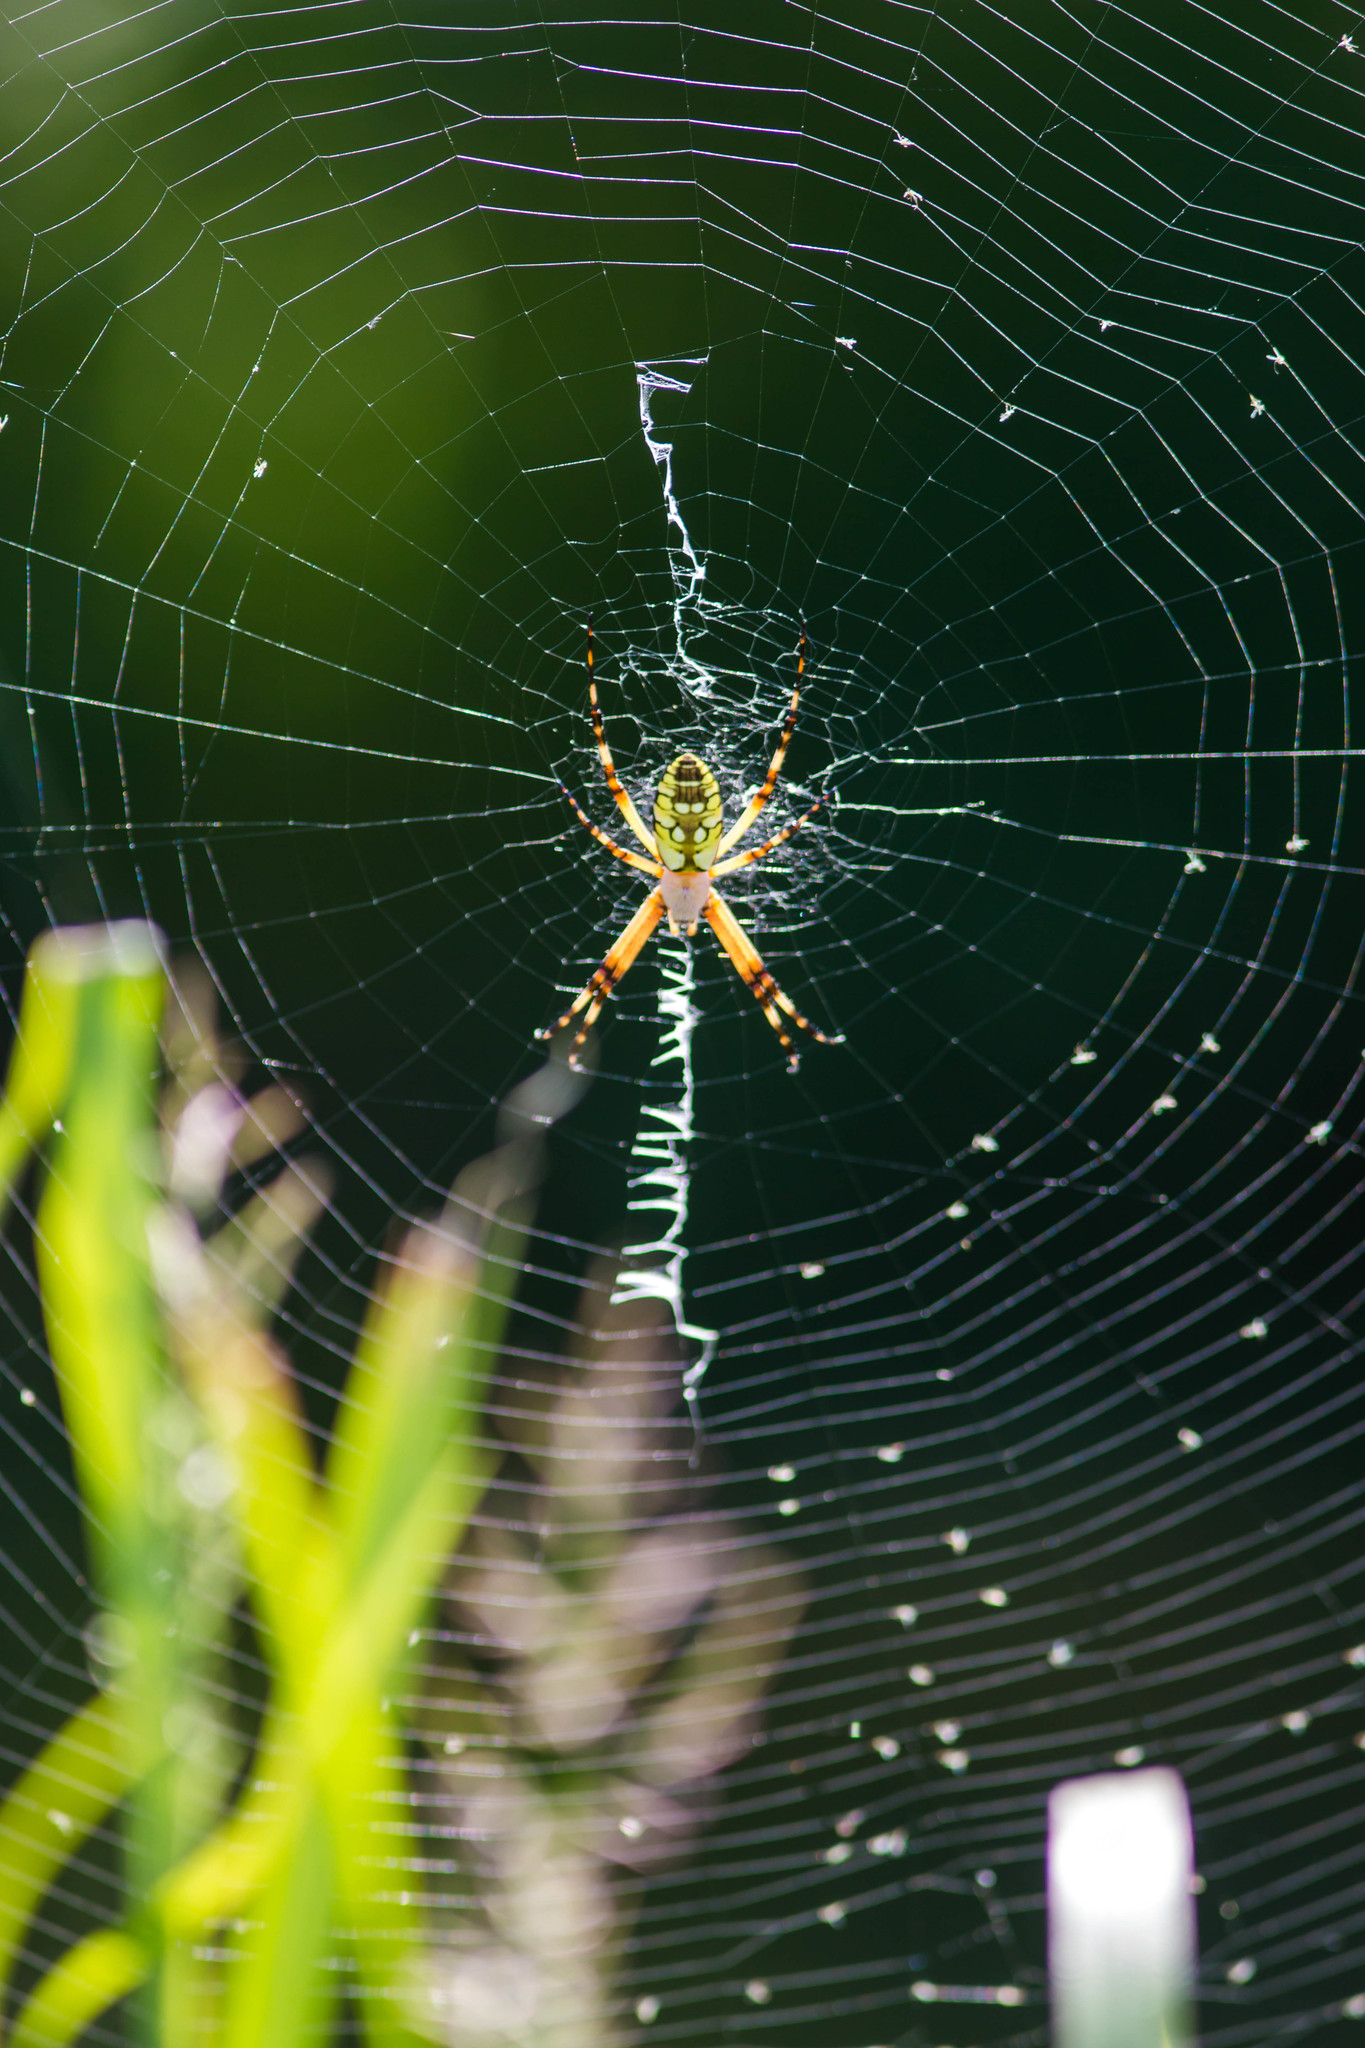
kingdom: Animalia
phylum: Arthropoda
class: Arachnida
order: Araneae
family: Araneidae
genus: Argiope
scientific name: Argiope aurantia
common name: Orb weavers
